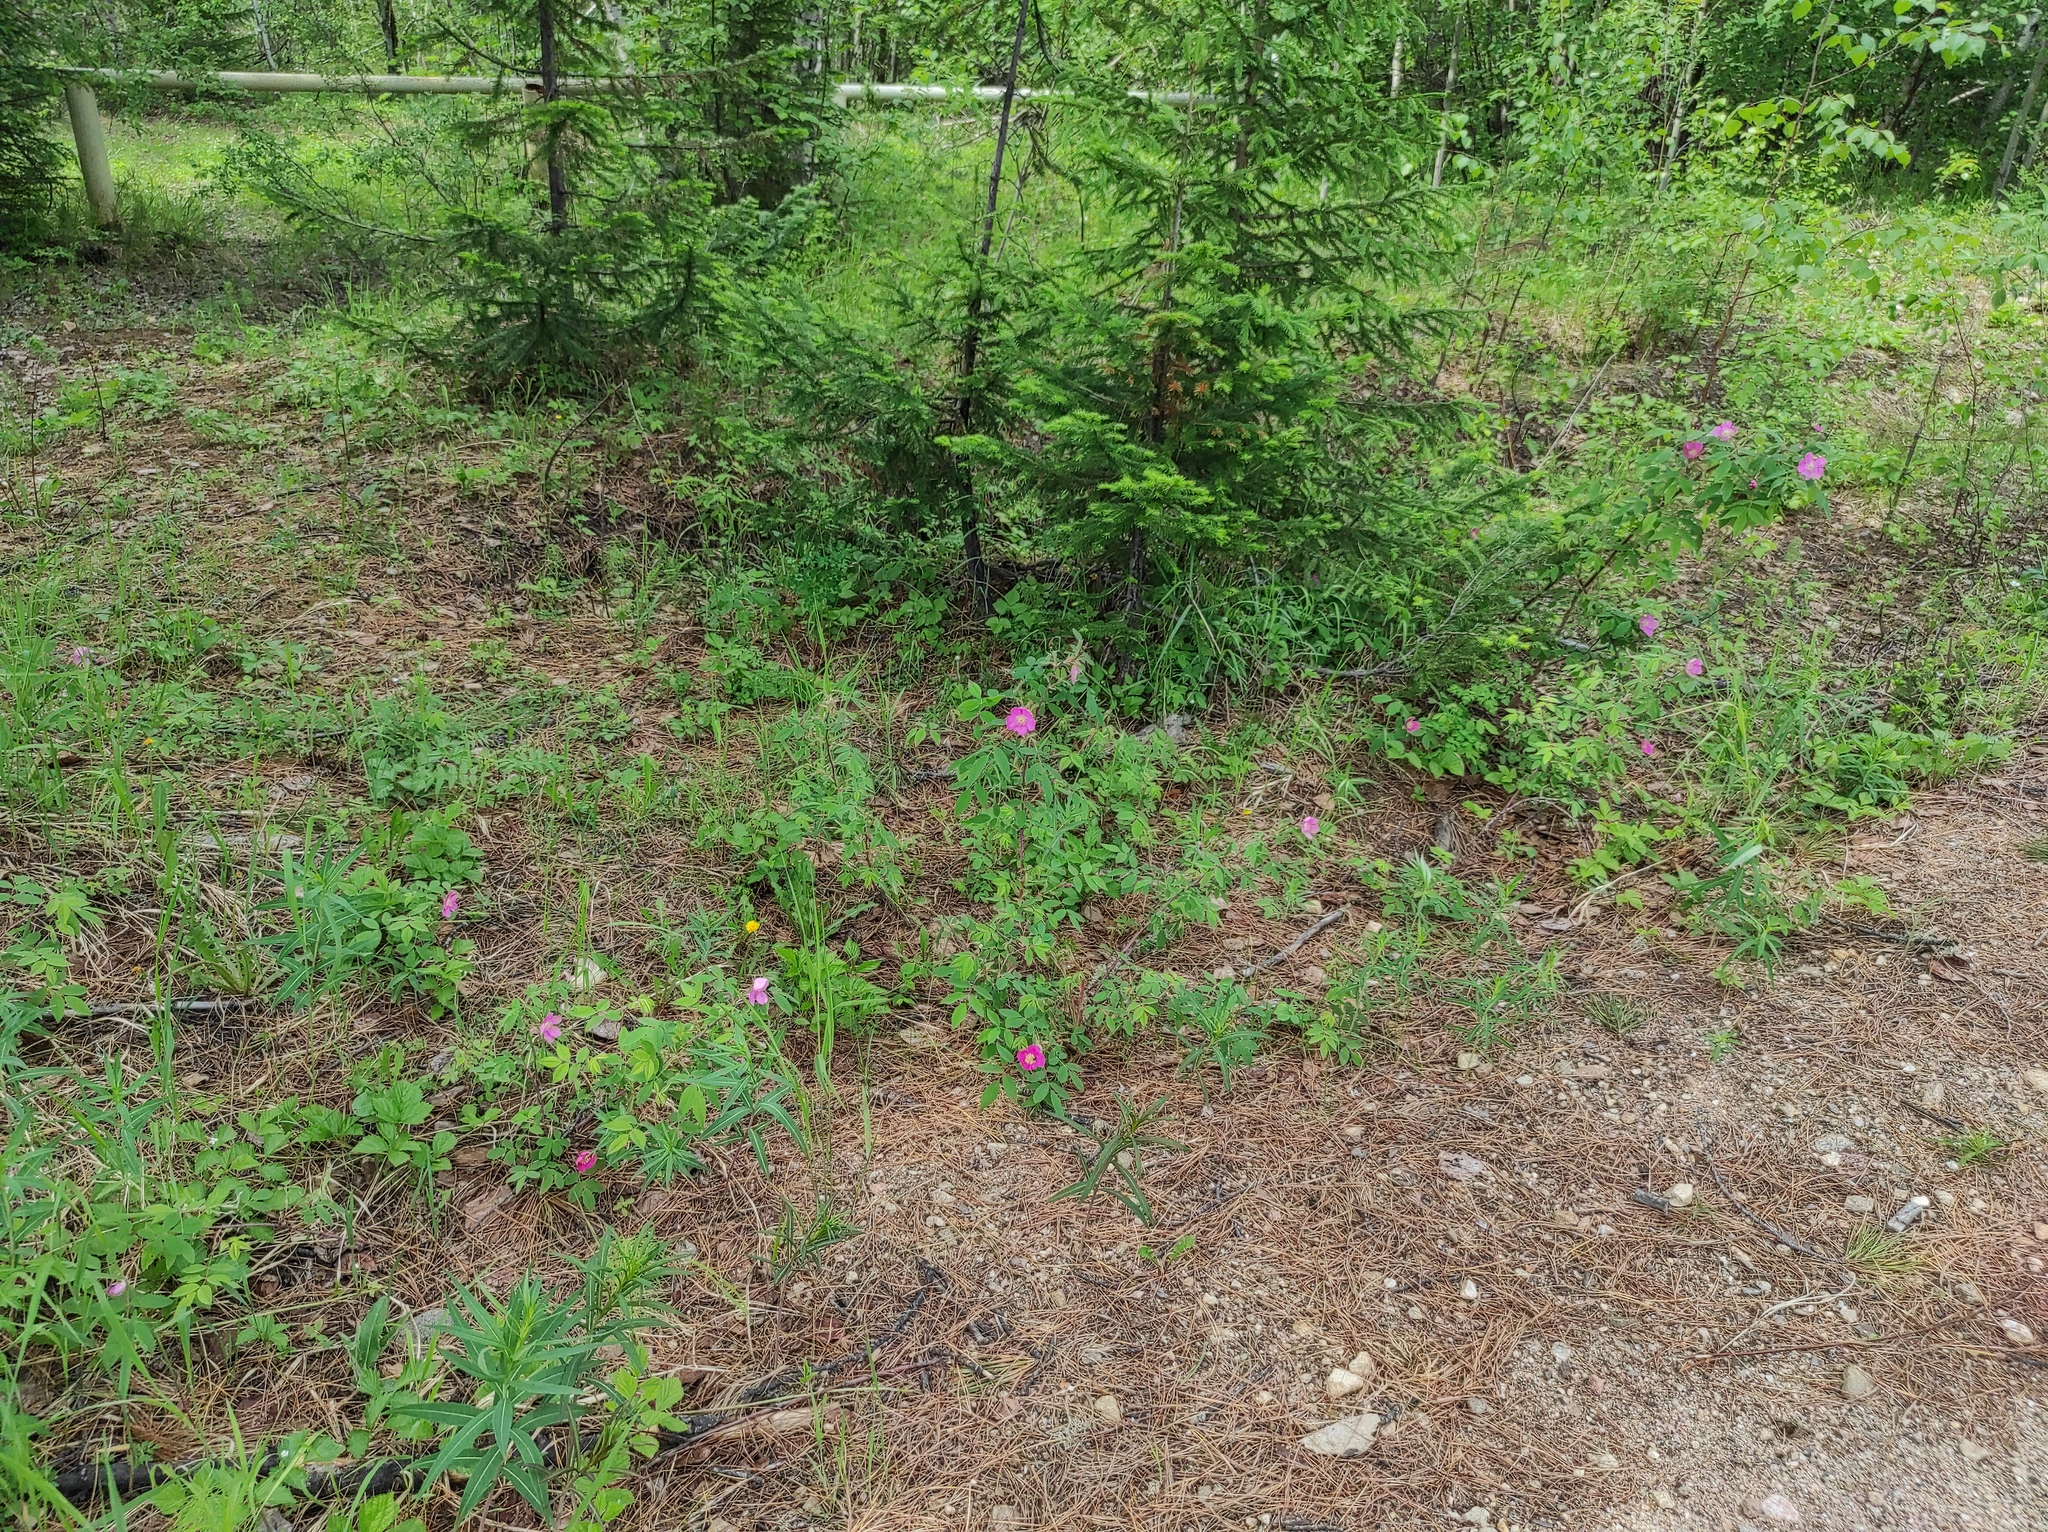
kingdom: Plantae
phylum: Tracheophyta
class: Pinopsida
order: Pinales
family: Pinaceae
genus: Picea
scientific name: Picea obovata
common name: Siberian spruce
